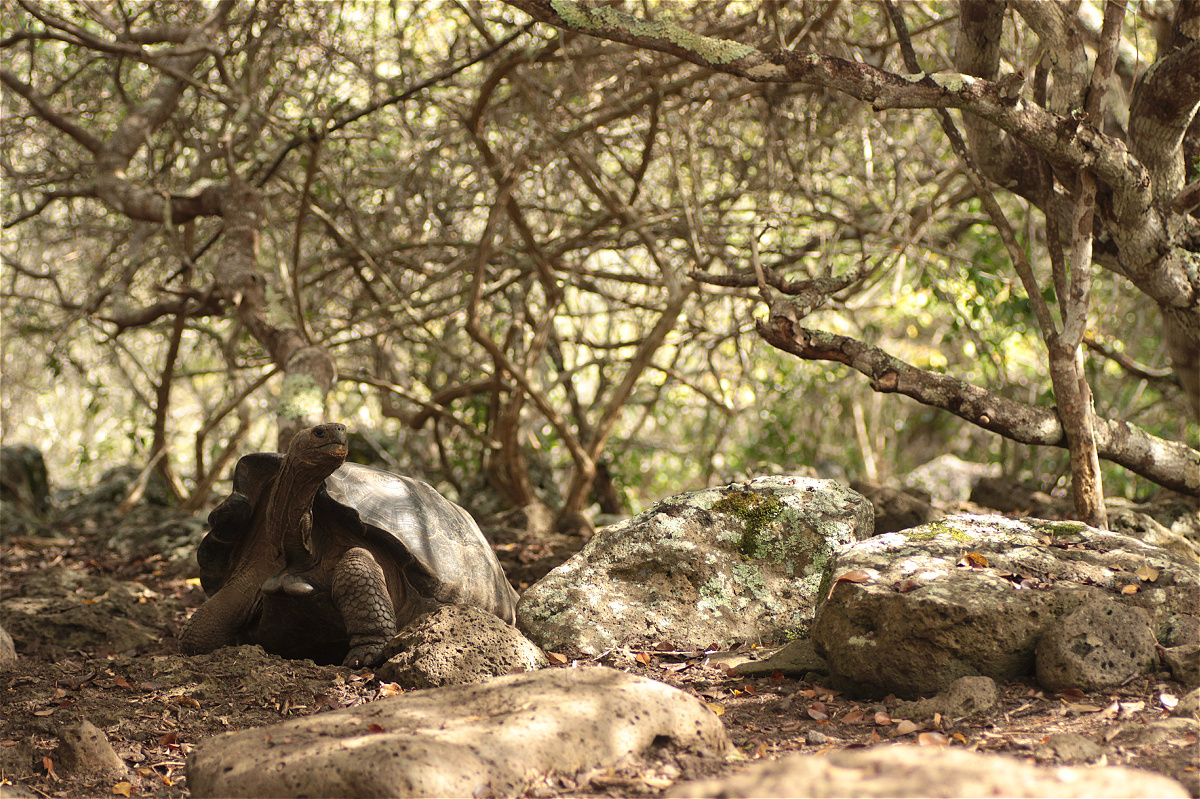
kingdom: Animalia
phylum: Chordata
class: Testudines
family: Testudinidae
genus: Chelonoidis
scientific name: Chelonoidis chathamensis
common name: Chatham island giant tortoise
